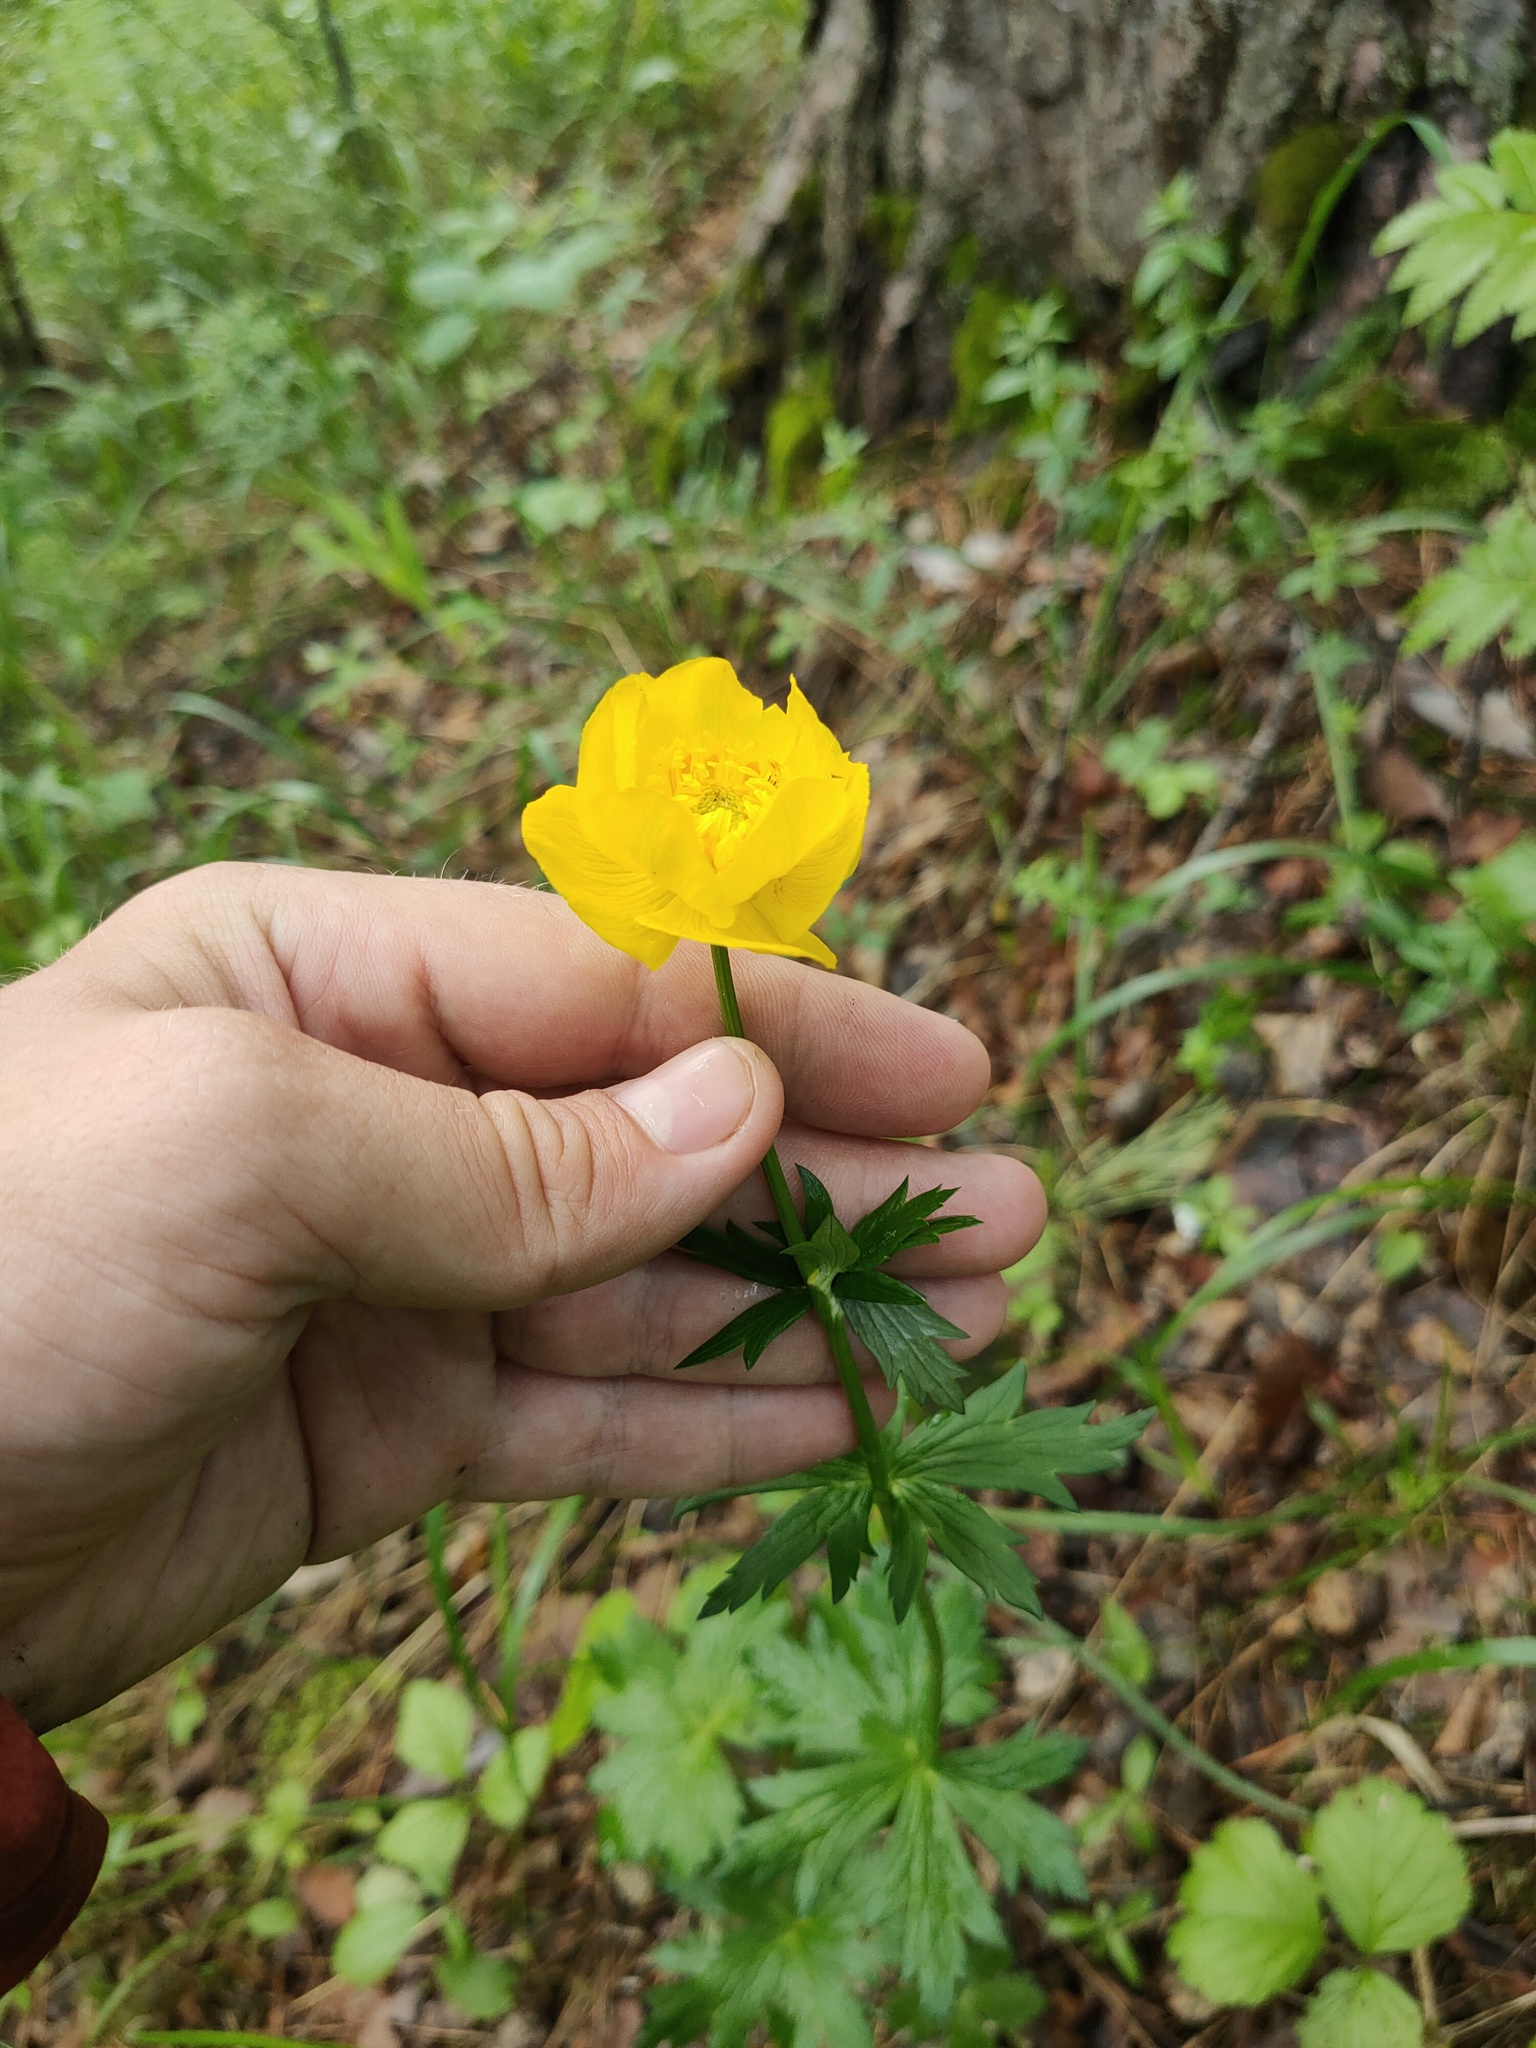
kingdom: Plantae
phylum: Tracheophyta
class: Magnoliopsida
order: Ranunculales
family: Ranunculaceae
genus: Trollius
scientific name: Trollius europaeus
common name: European globeflower
